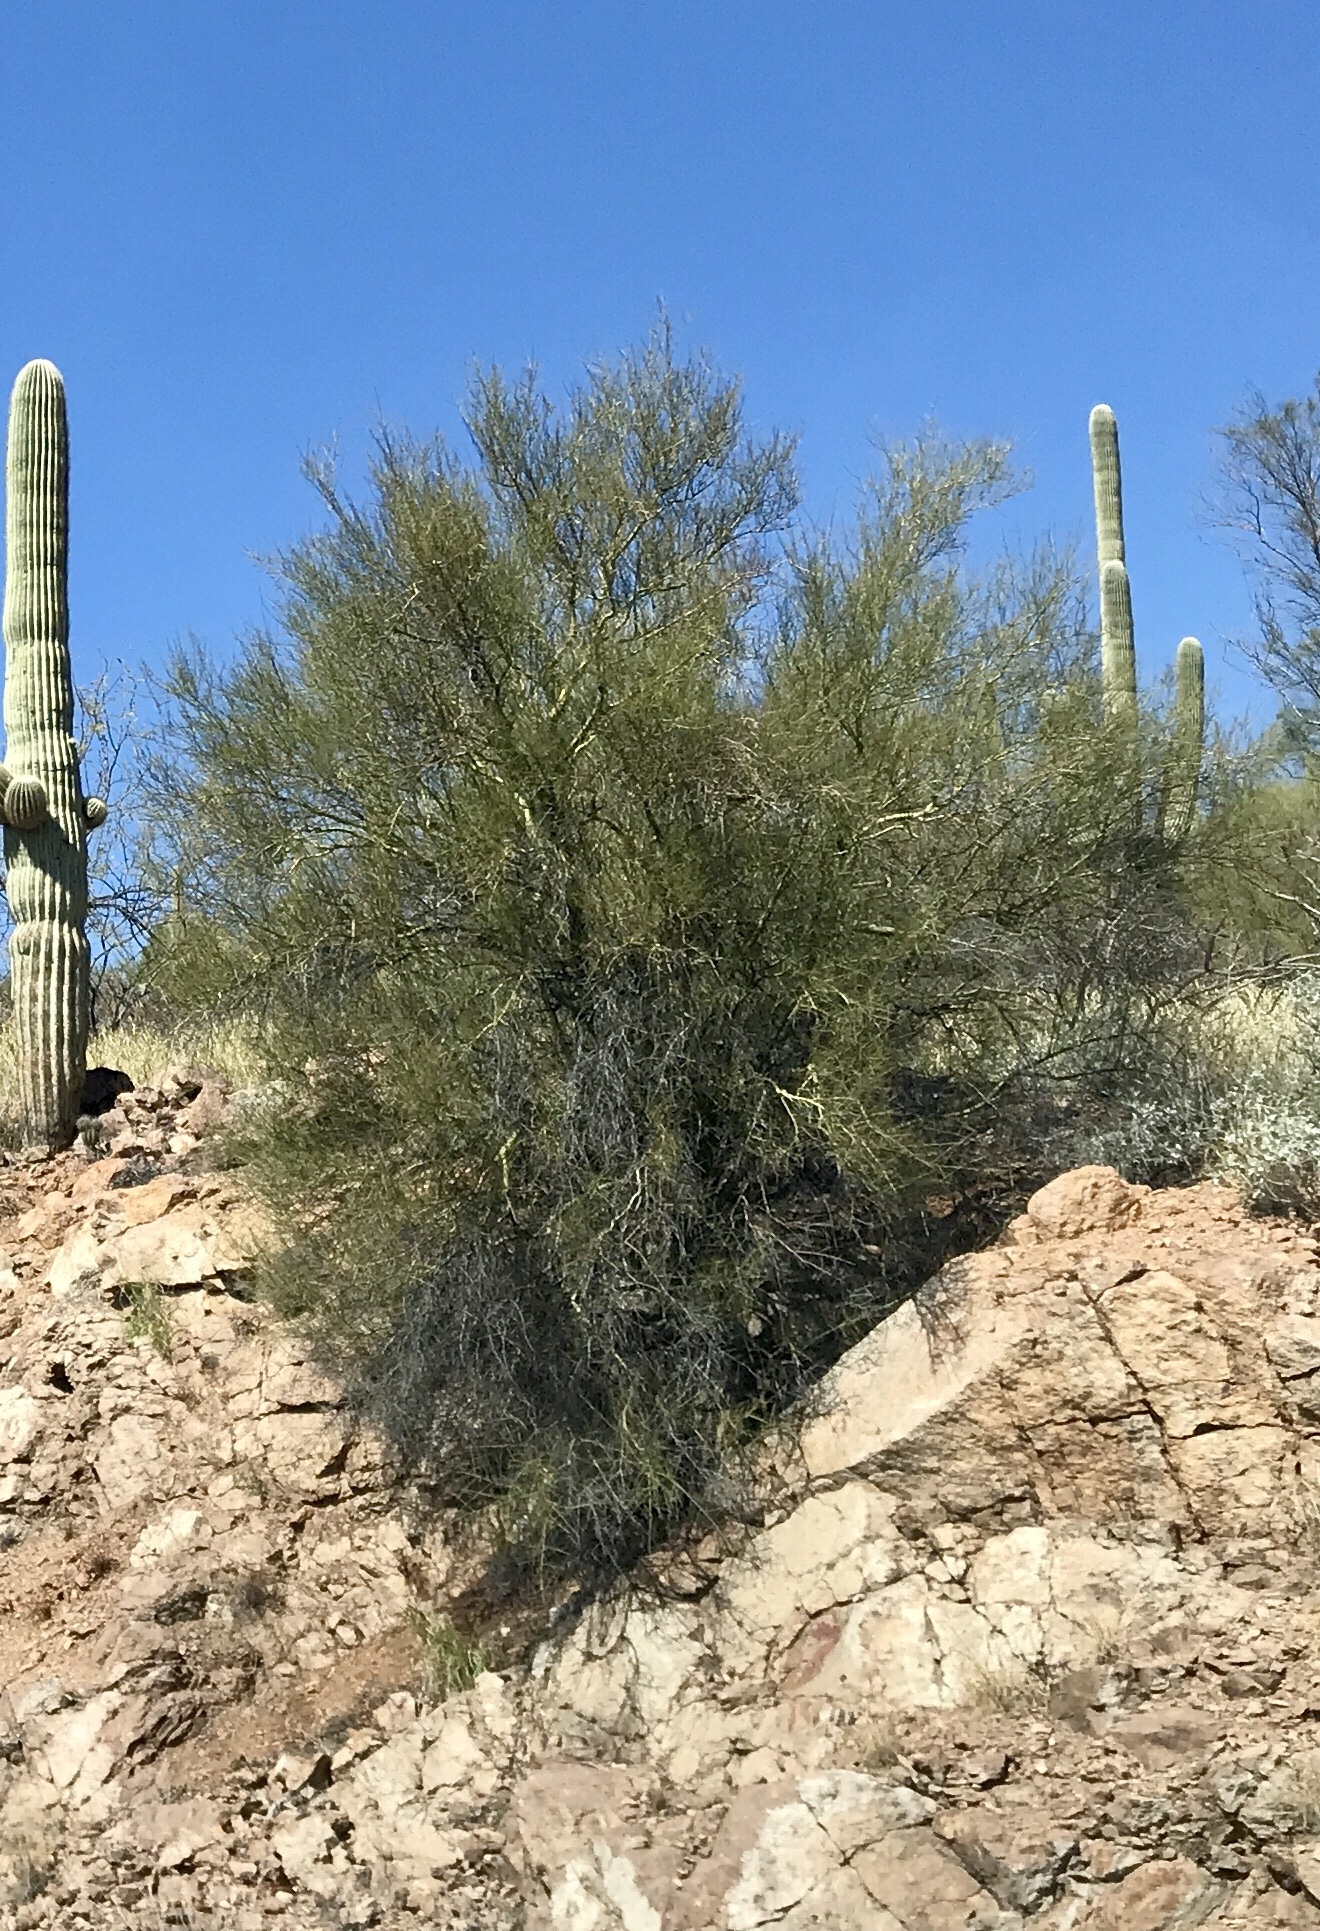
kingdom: Plantae
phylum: Tracheophyta
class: Magnoliopsida
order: Fabales
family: Fabaceae
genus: Parkinsonia
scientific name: Parkinsonia microphylla
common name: Yellow paloverde
